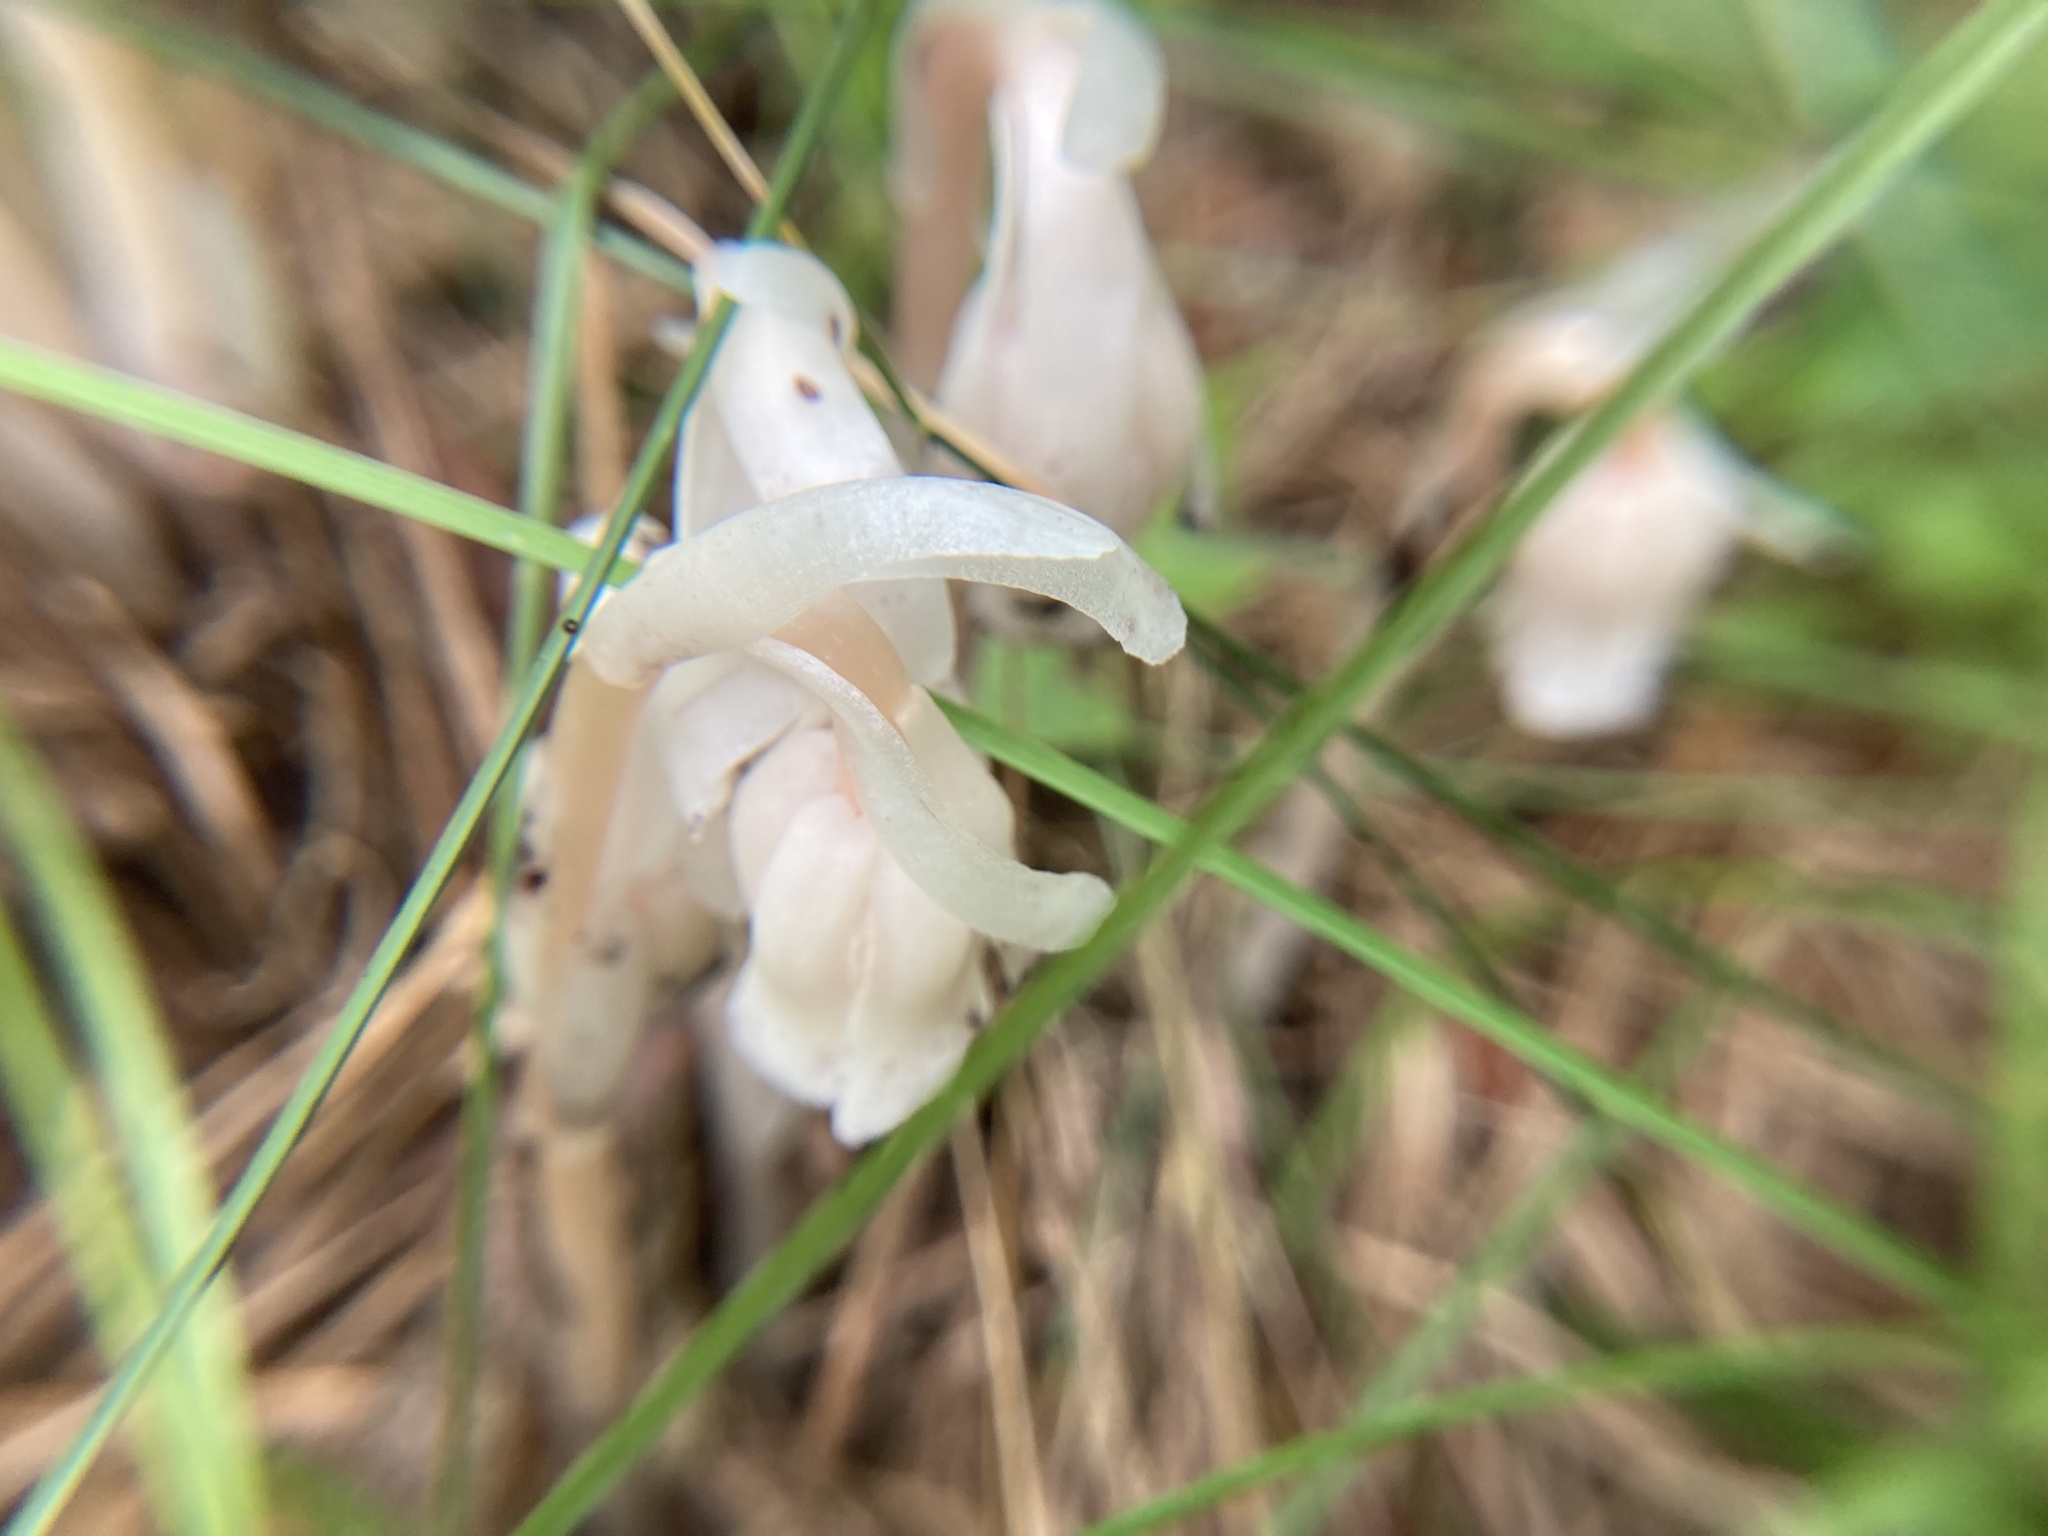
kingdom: Plantae
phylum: Tracheophyta
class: Magnoliopsida
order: Ericales
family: Ericaceae
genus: Monotropa
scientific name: Monotropa uniflora
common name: Convulsion root
